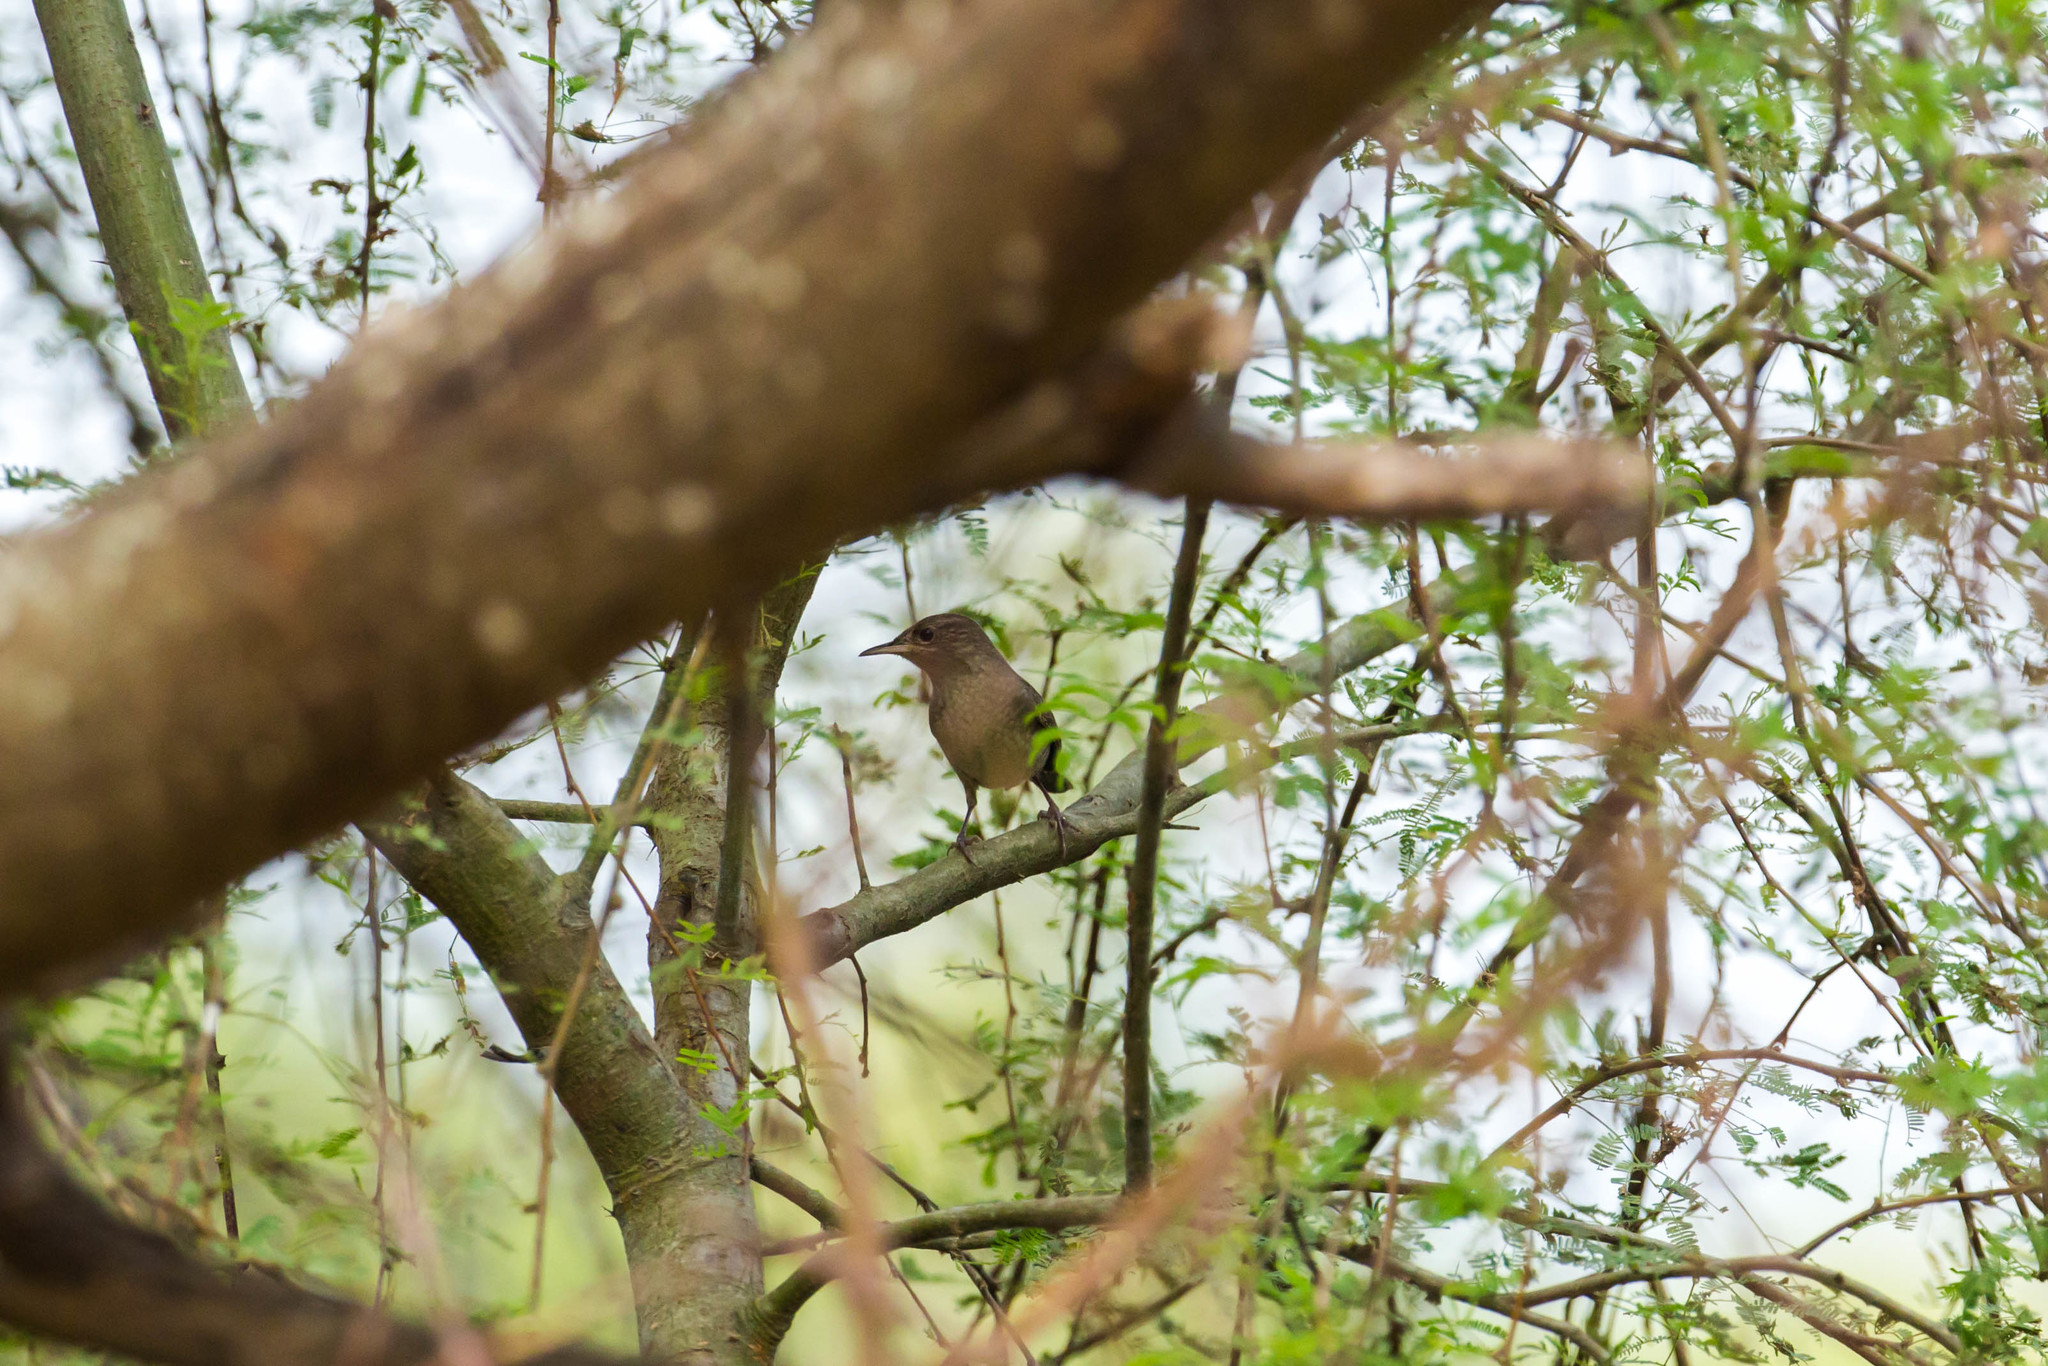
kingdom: Animalia
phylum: Chordata
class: Aves
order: Passeriformes
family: Troglodytidae
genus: Troglodytes
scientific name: Troglodytes aedon
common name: House wren
